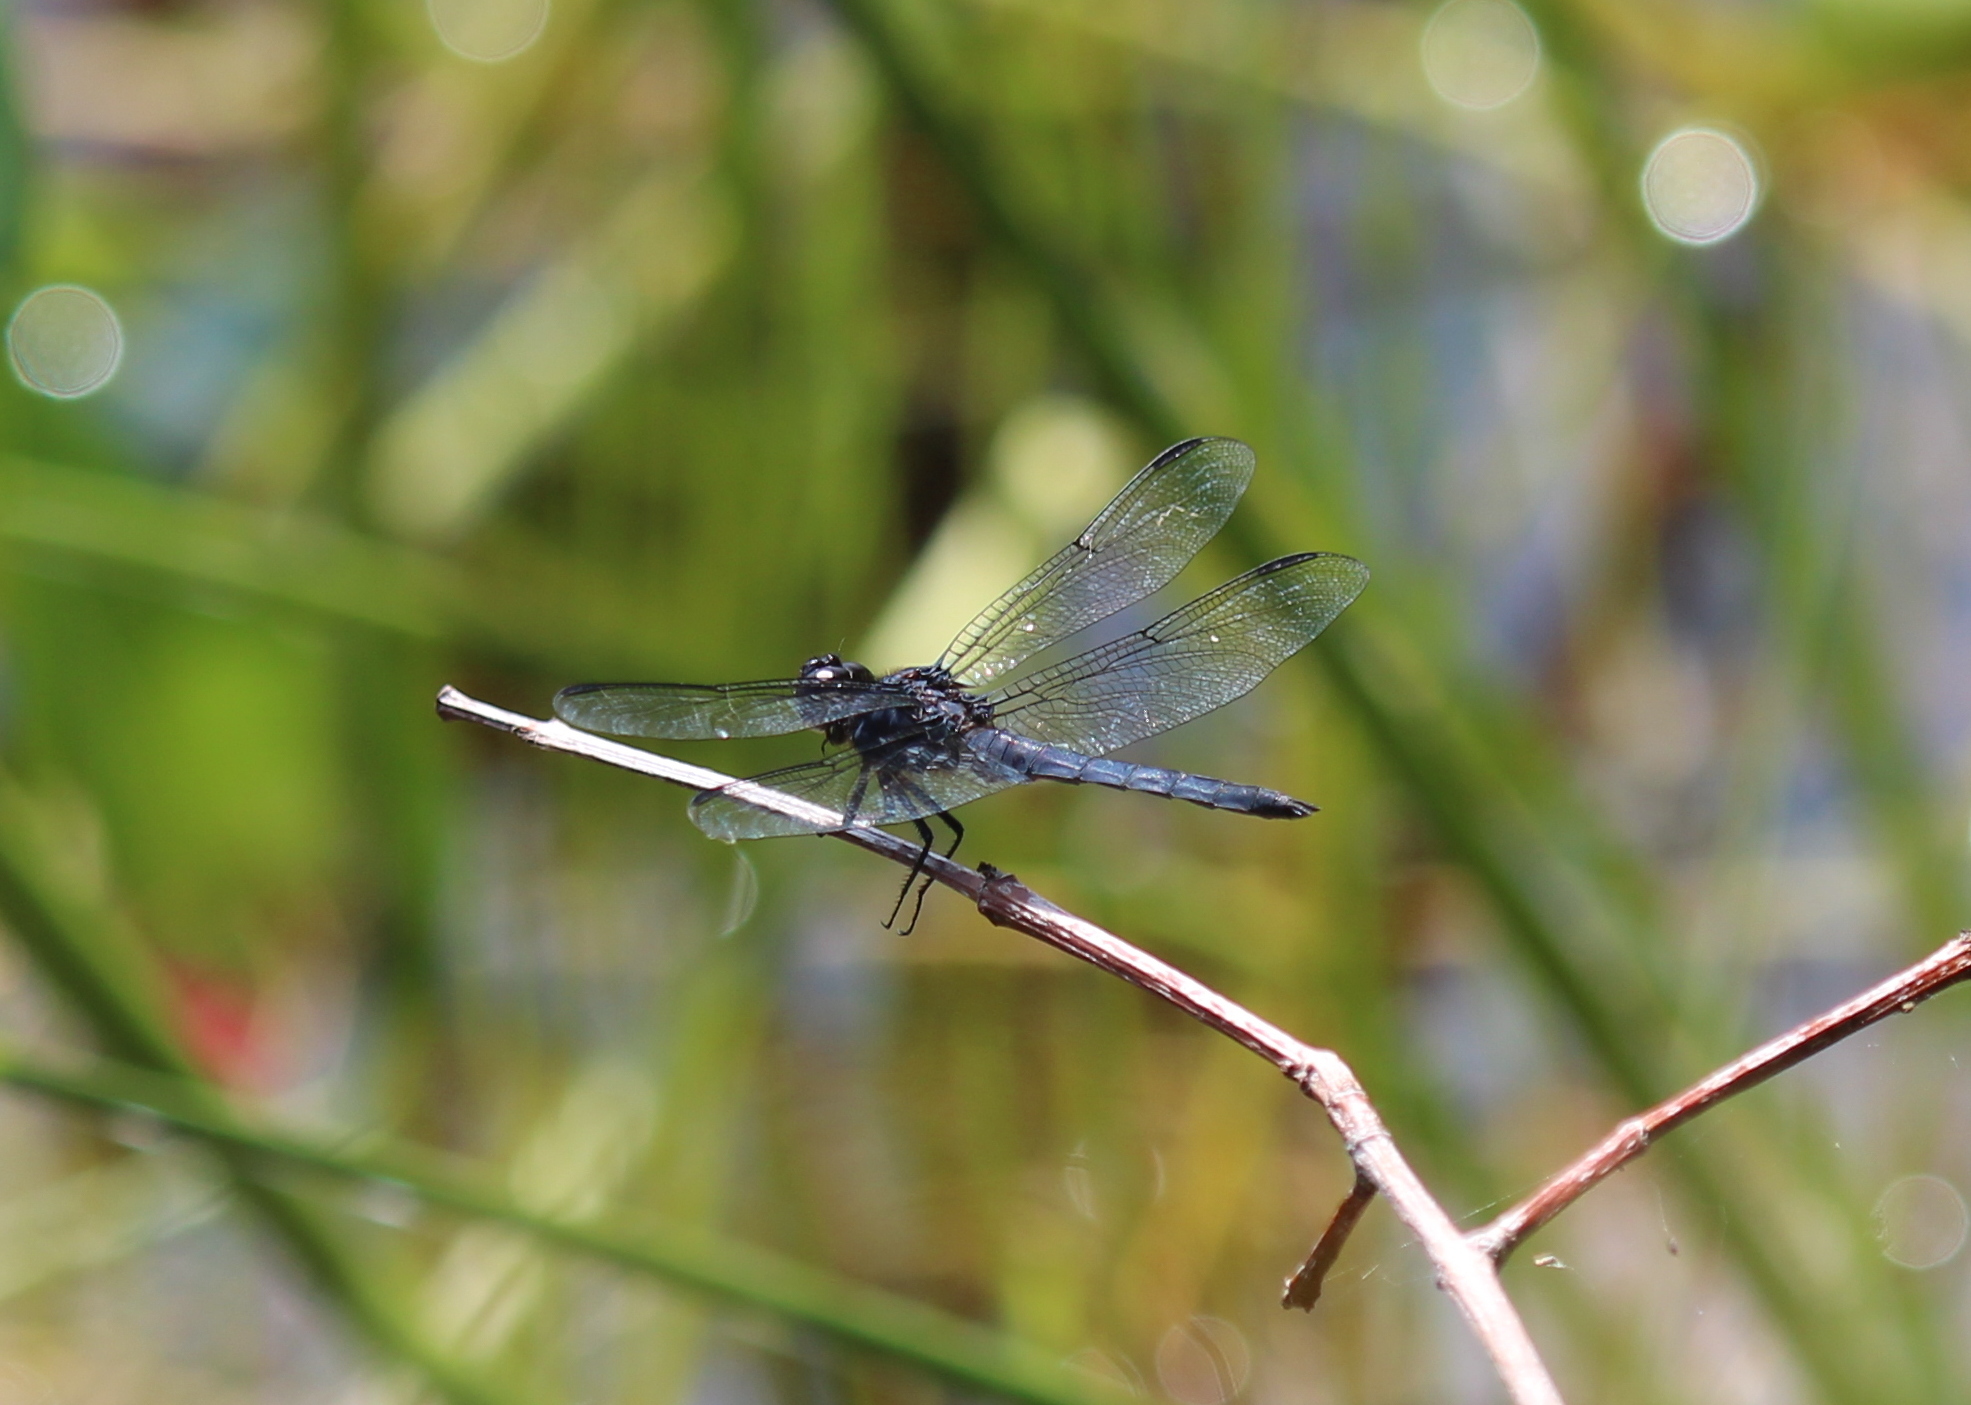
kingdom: Animalia
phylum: Arthropoda
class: Insecta
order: Odonata
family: Libellulidae
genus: Libellula
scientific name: Libellula incesta
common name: Slaty skimmer
